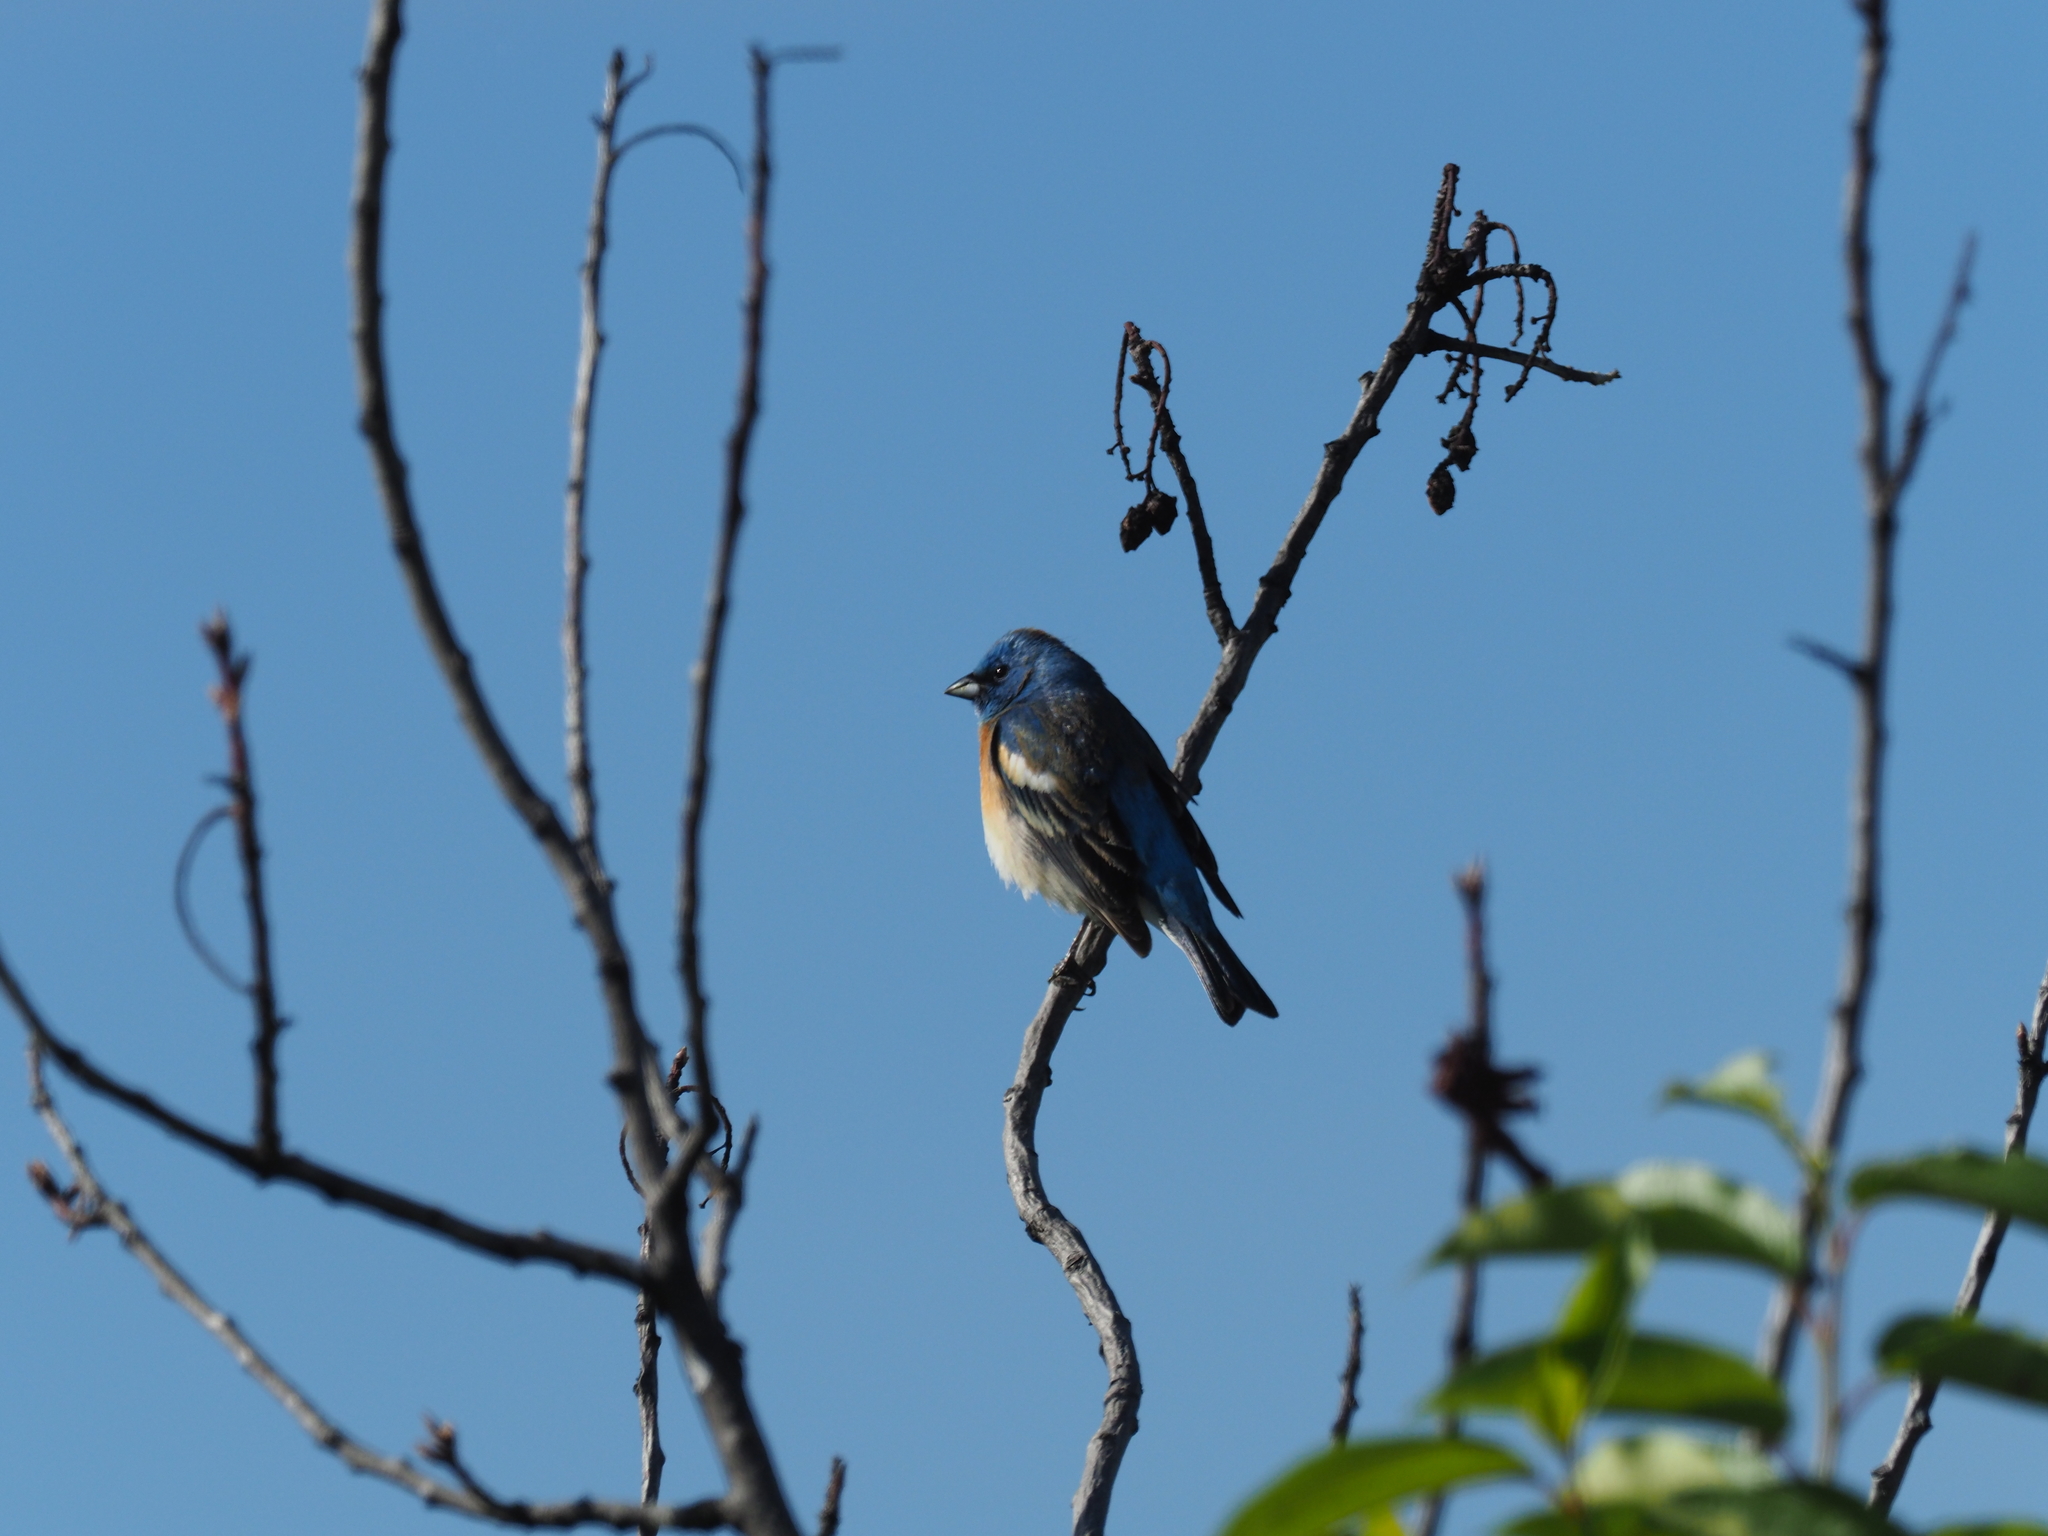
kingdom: Animalia
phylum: Chordata
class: Aves
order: Passeriformes
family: Cardinalidae
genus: Passerina
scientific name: Passerina amoena
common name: Lazuli bunting
